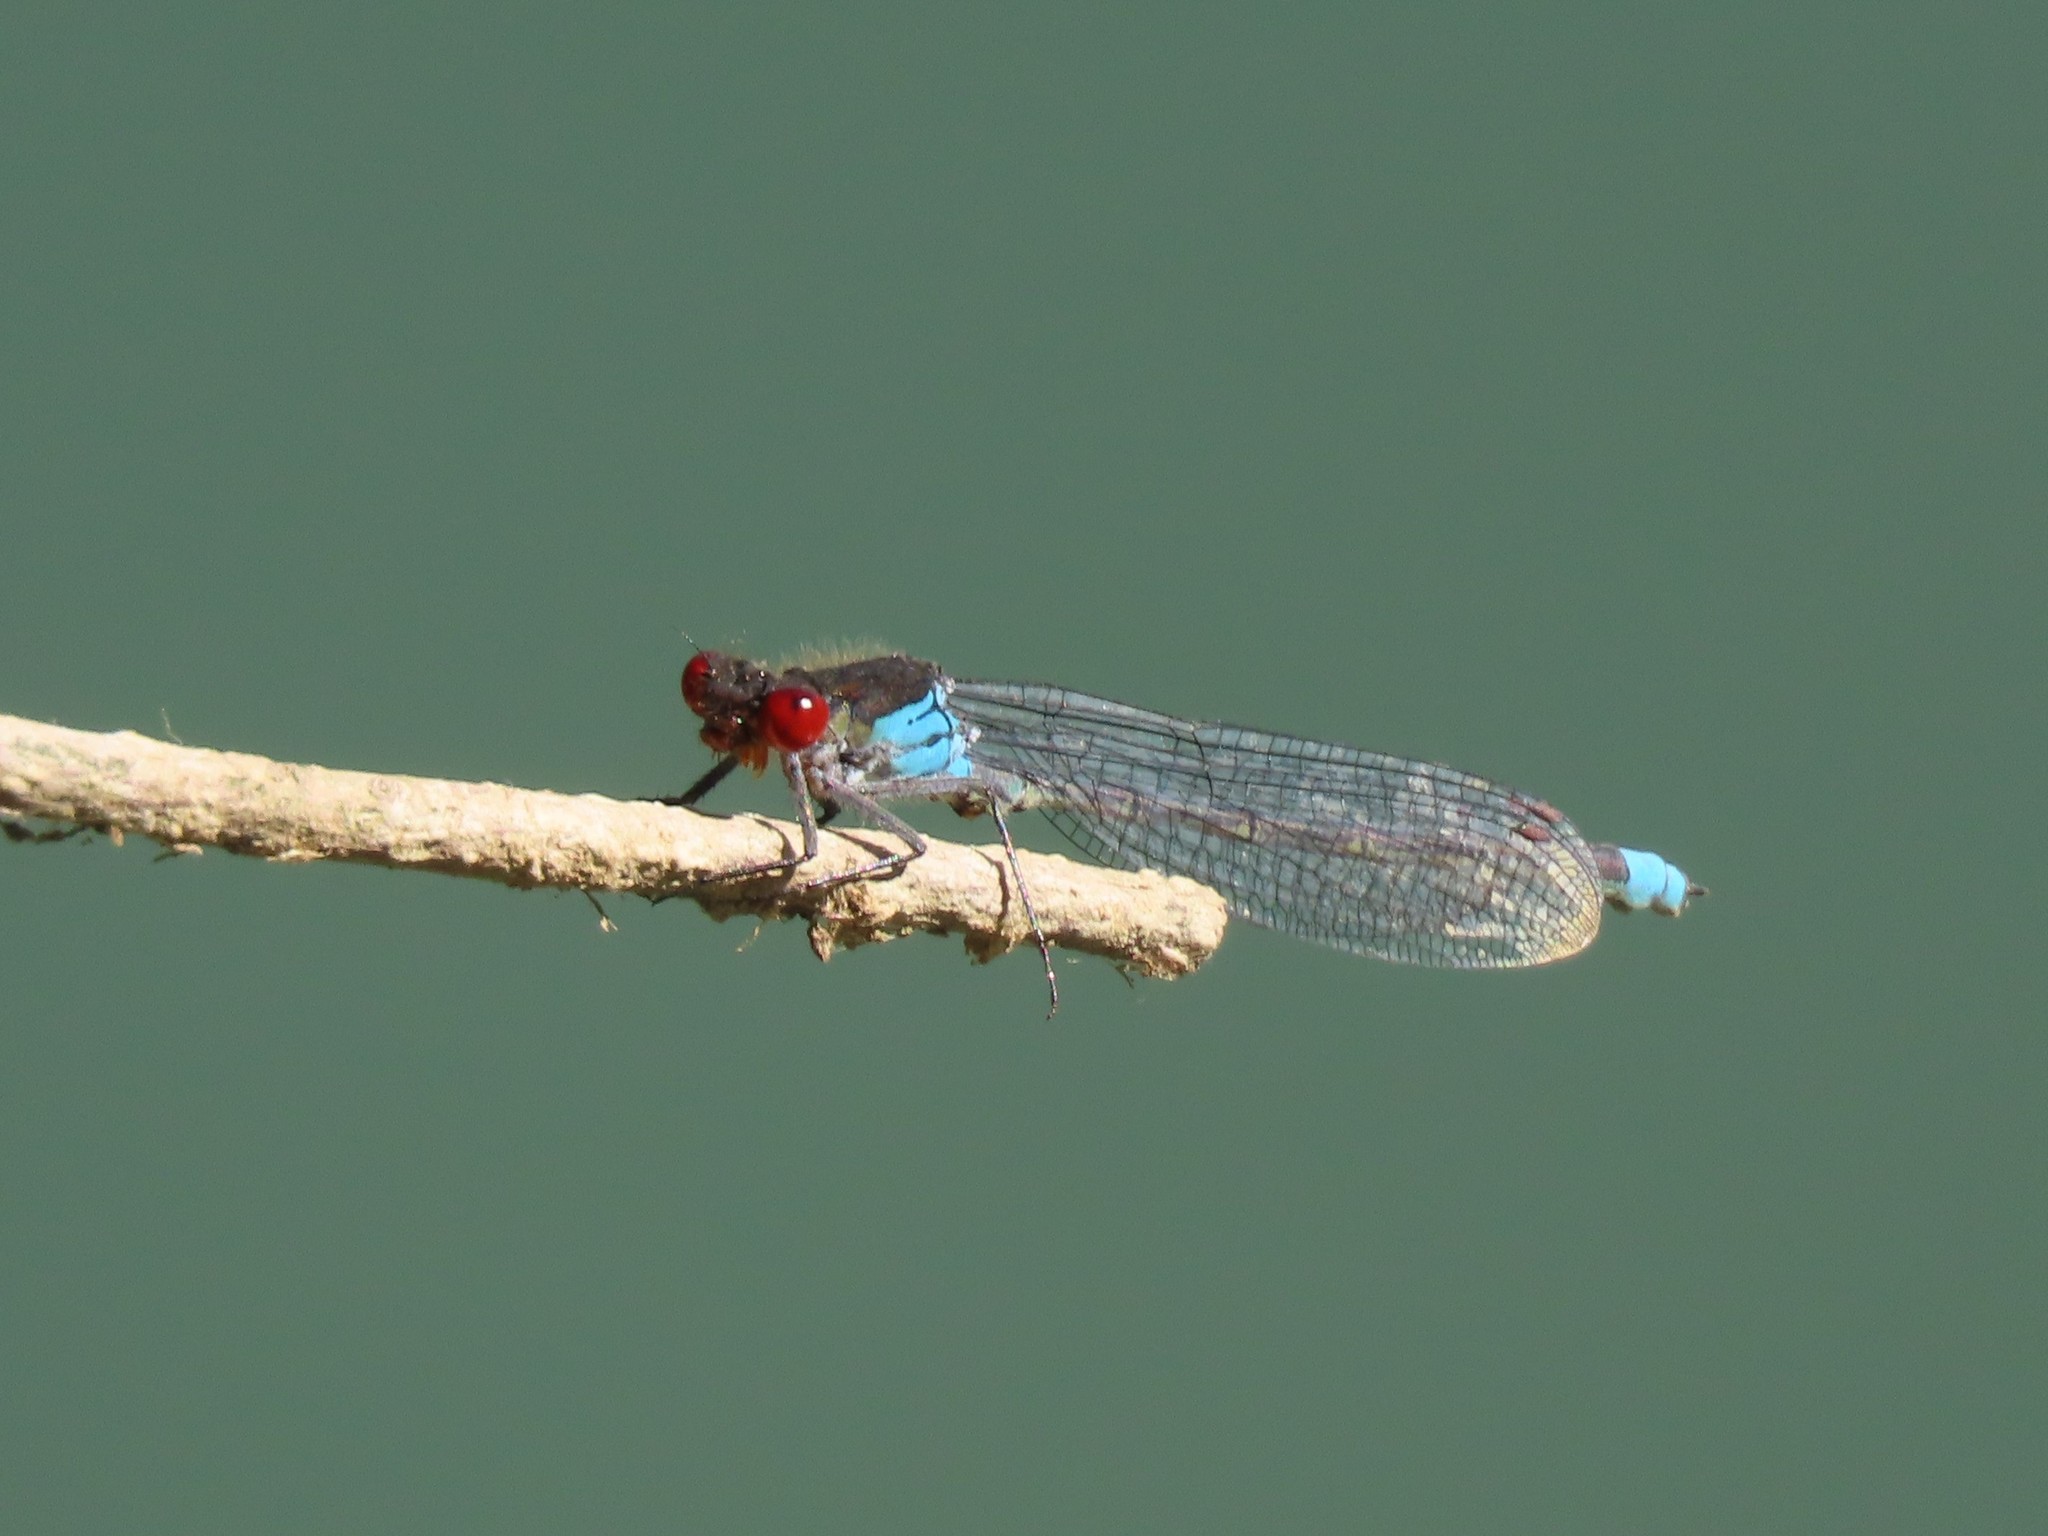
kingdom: Animalia
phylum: Arthropoda
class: Insecta
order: Odonata
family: Coenagrionidae
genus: Erythromma
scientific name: Erythromma najas
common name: Red-eyed damselfly
